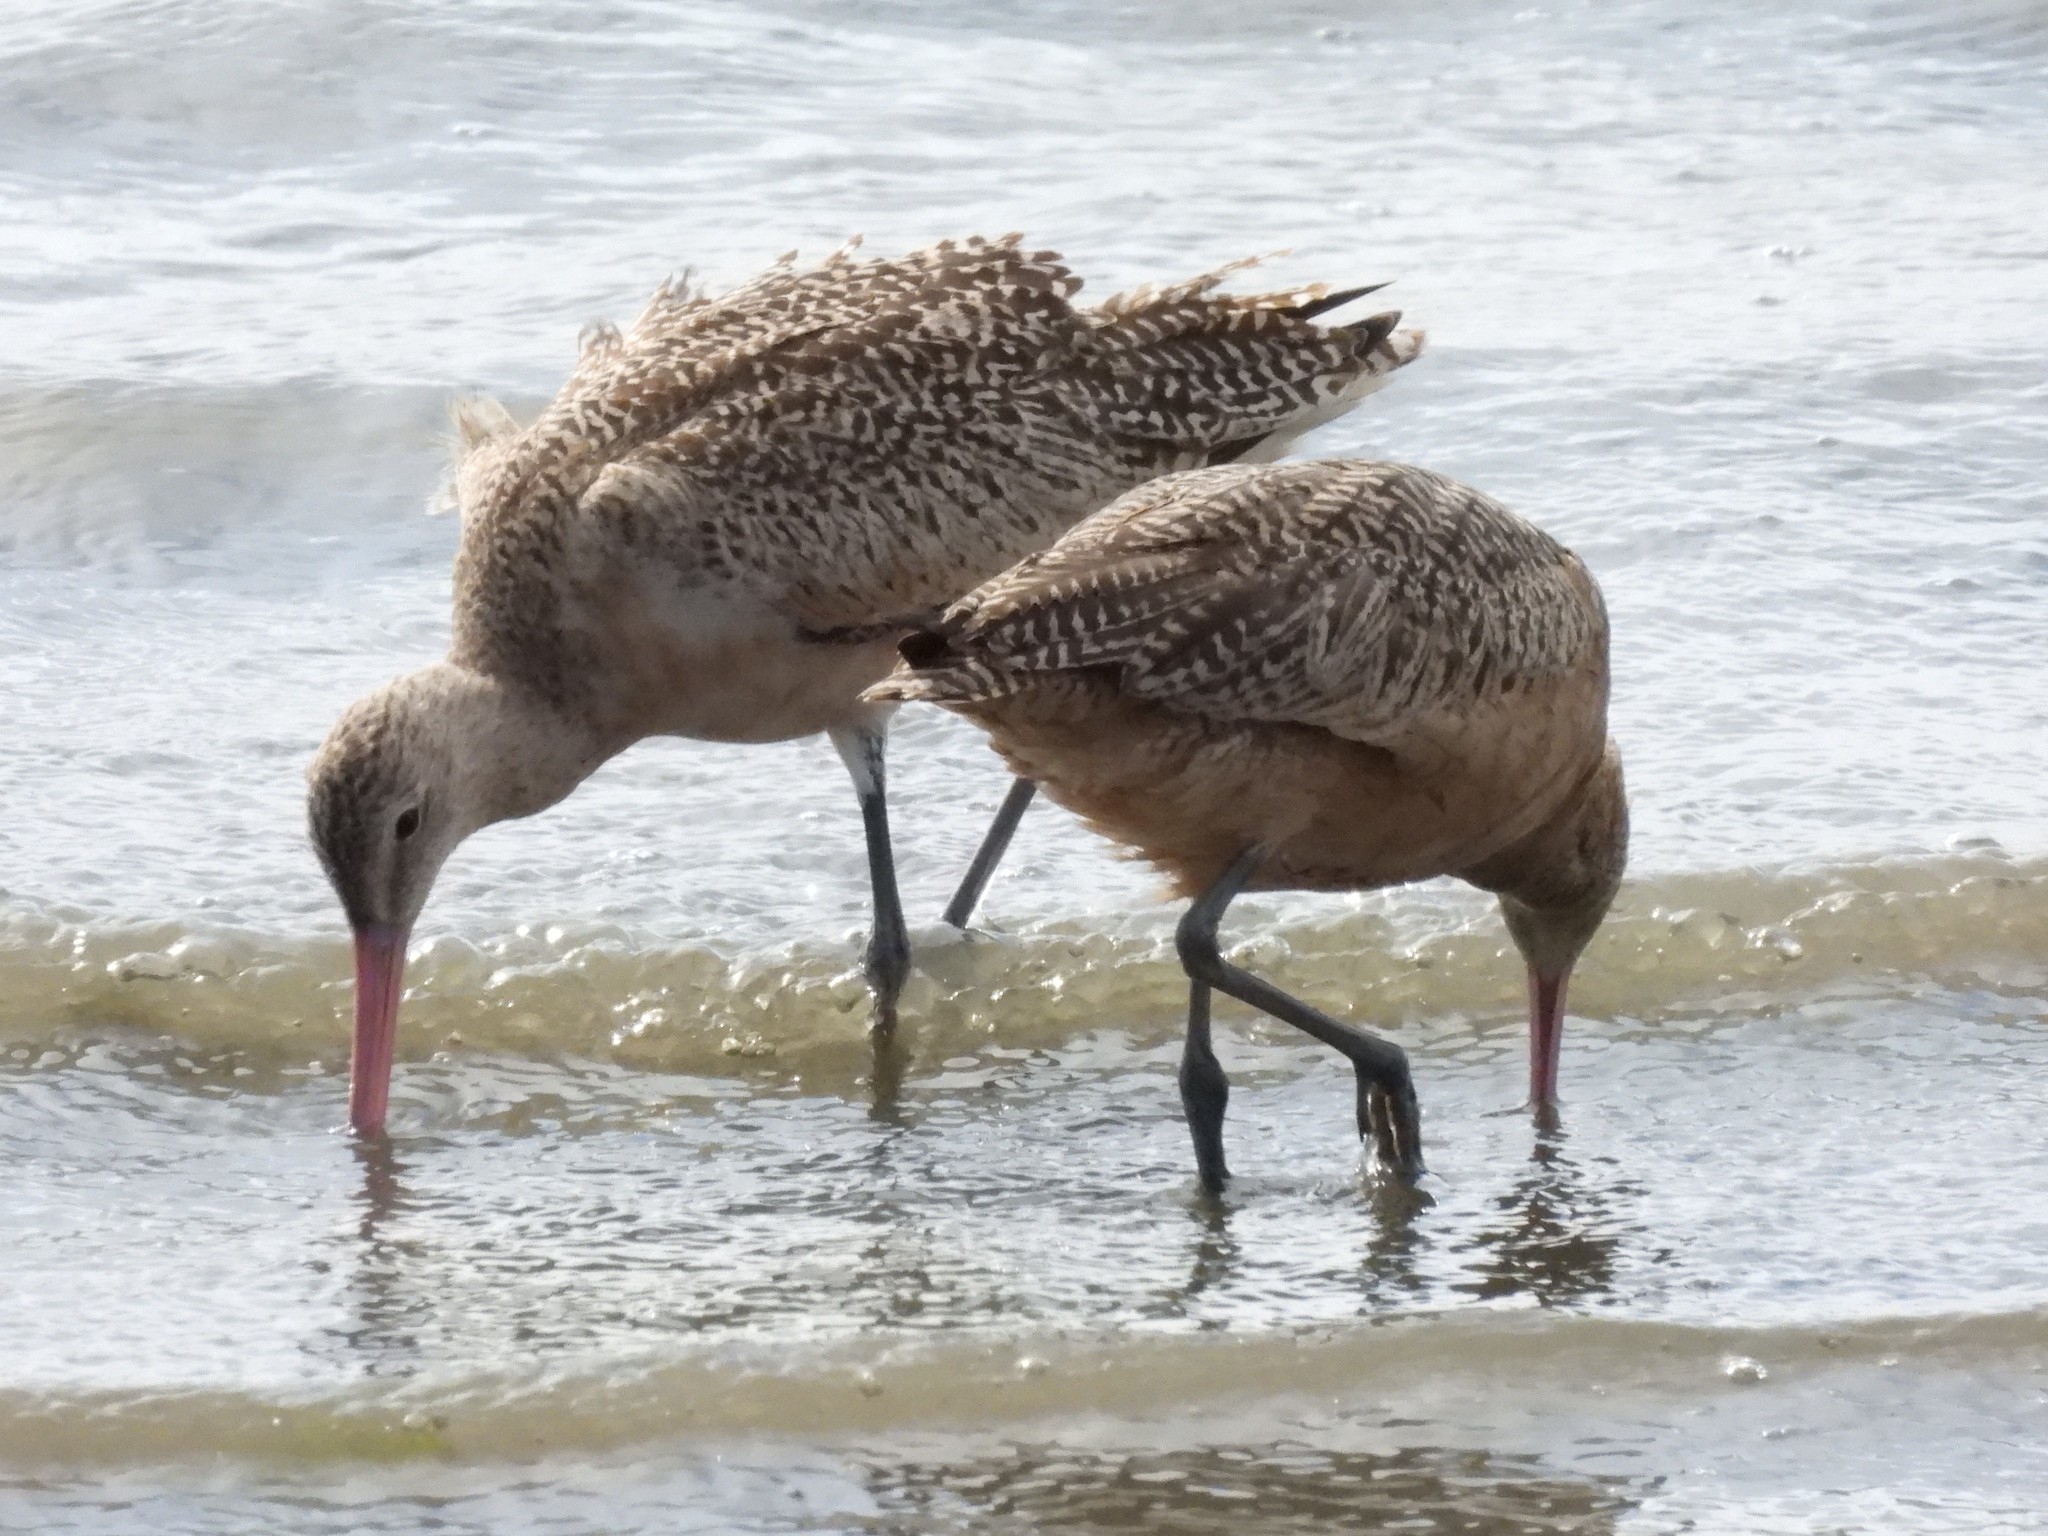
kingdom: Animalia
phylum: Chordata
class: Aves
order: Charadriiformes
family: Scolopacidae
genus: Limosa
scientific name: Limosa fedoa
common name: Marbled godwit
